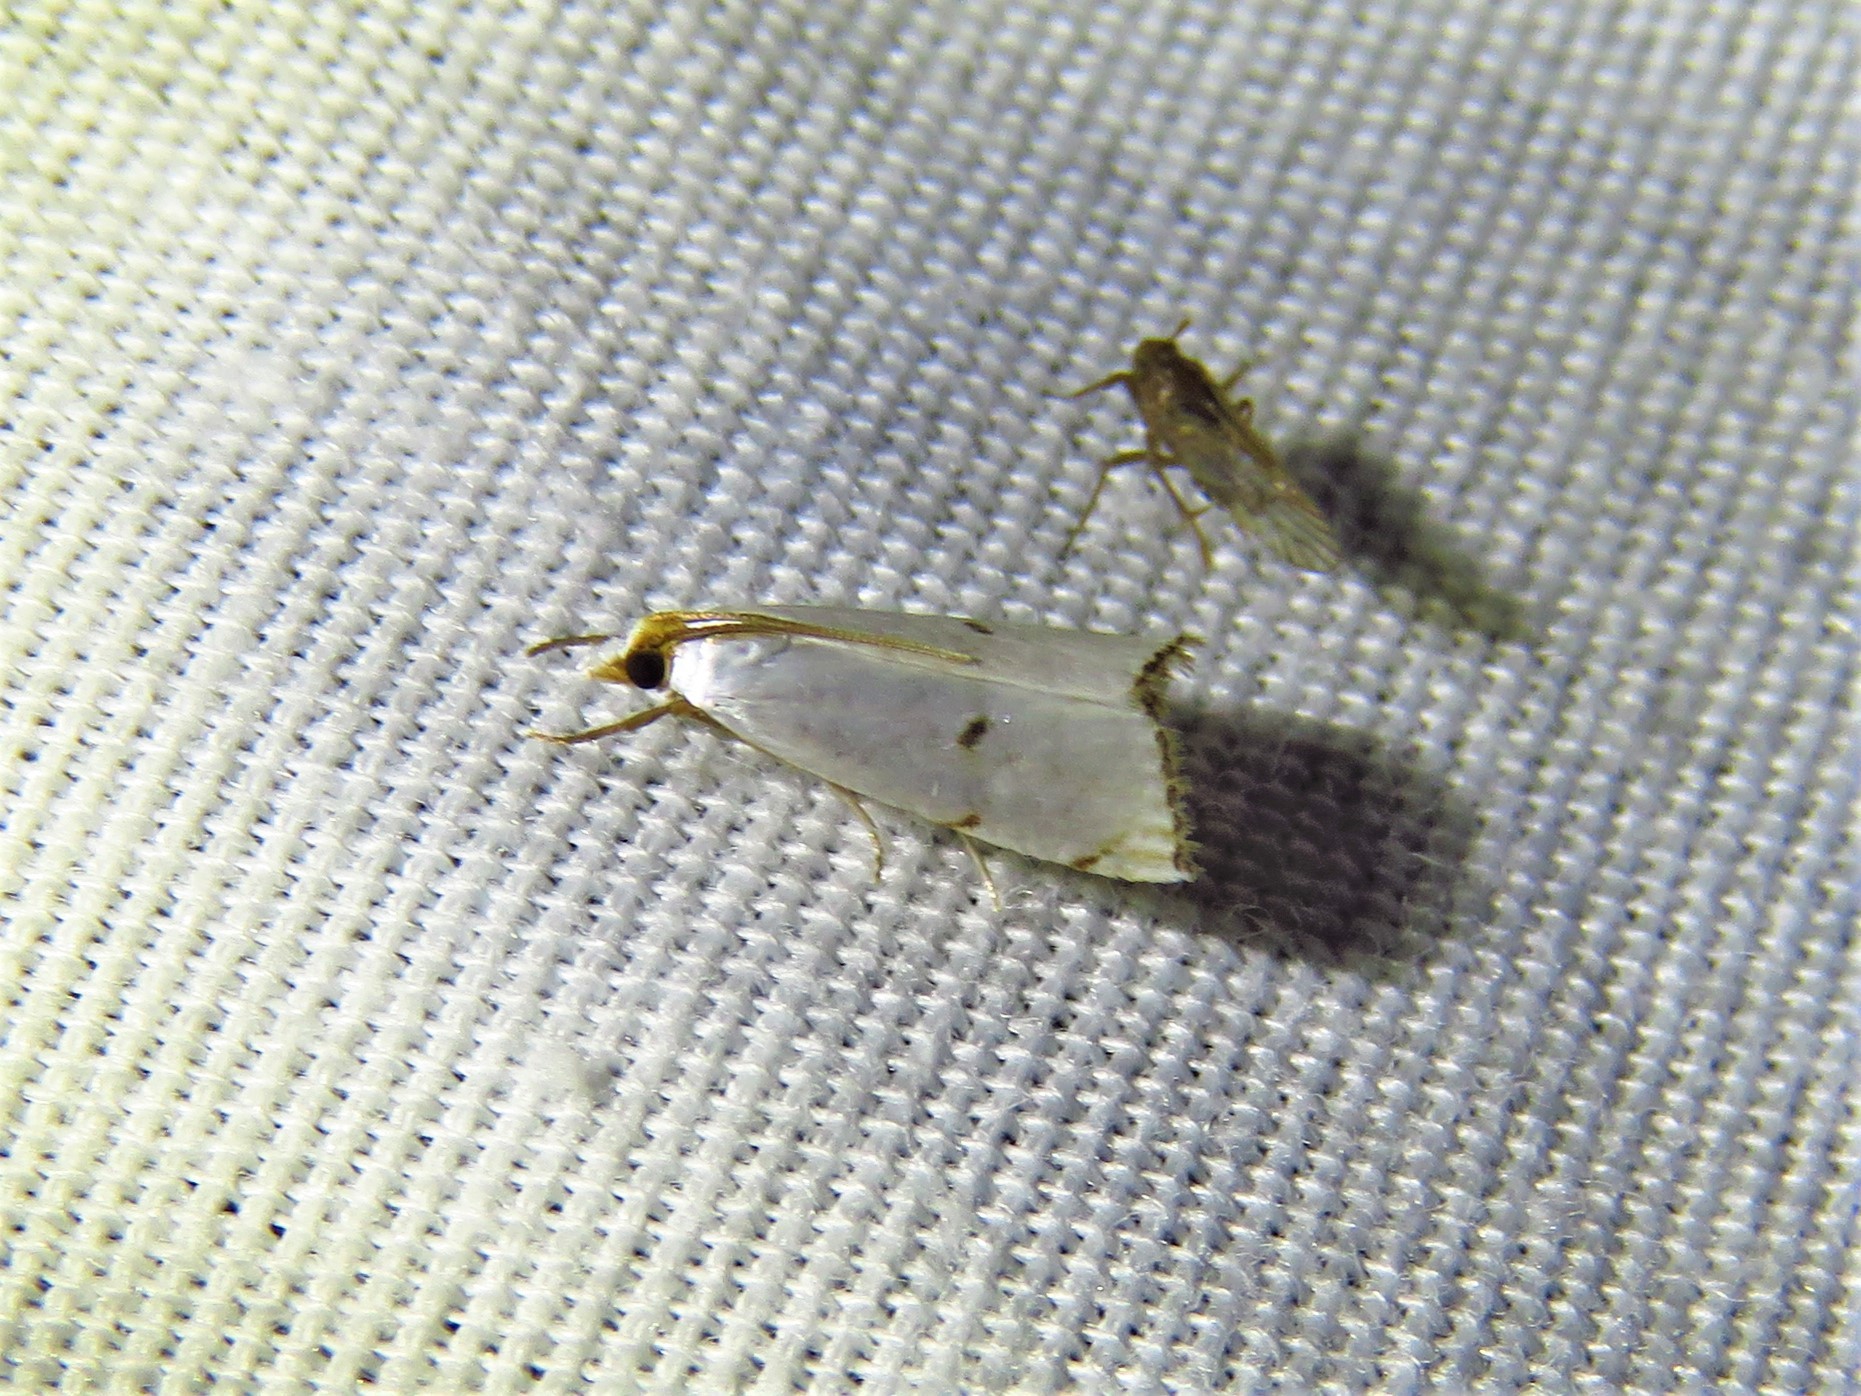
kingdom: Animalia
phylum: Arthropoda
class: Insecta
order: Lepidoptera
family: Crambidae
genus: Argyria
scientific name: Argyria pusillalis
